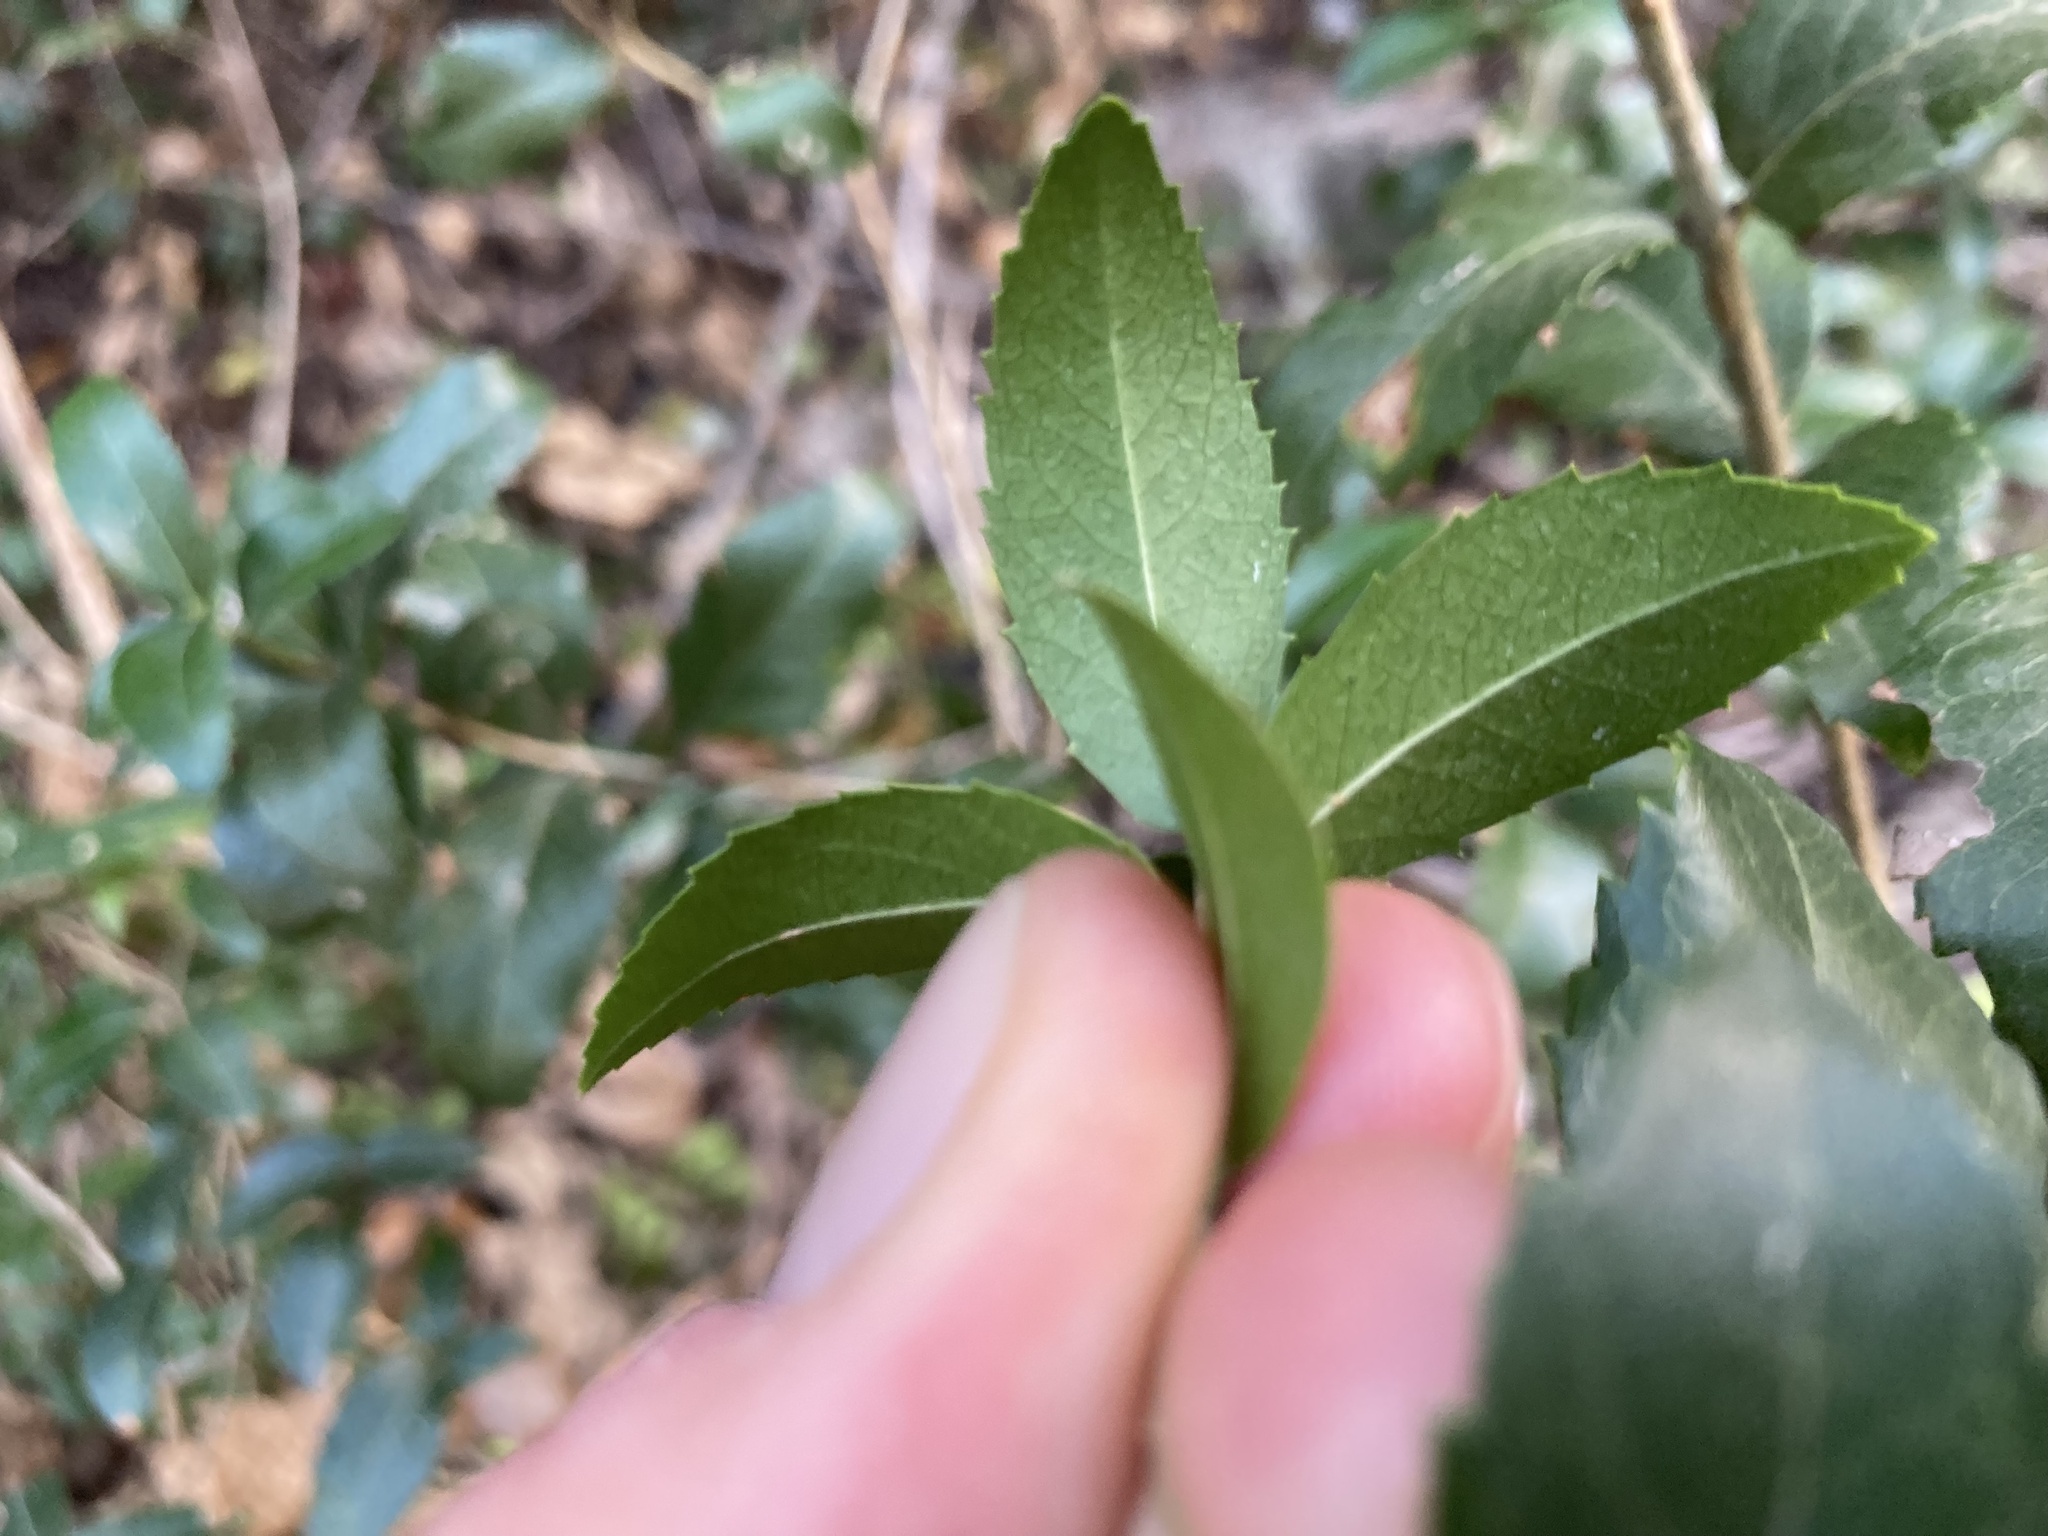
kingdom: Plantae
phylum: Tracheophyta
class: Magnoliopsida
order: Lamiales
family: Oleaceae
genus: Phillyrea
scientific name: Phillyrea latifolia
